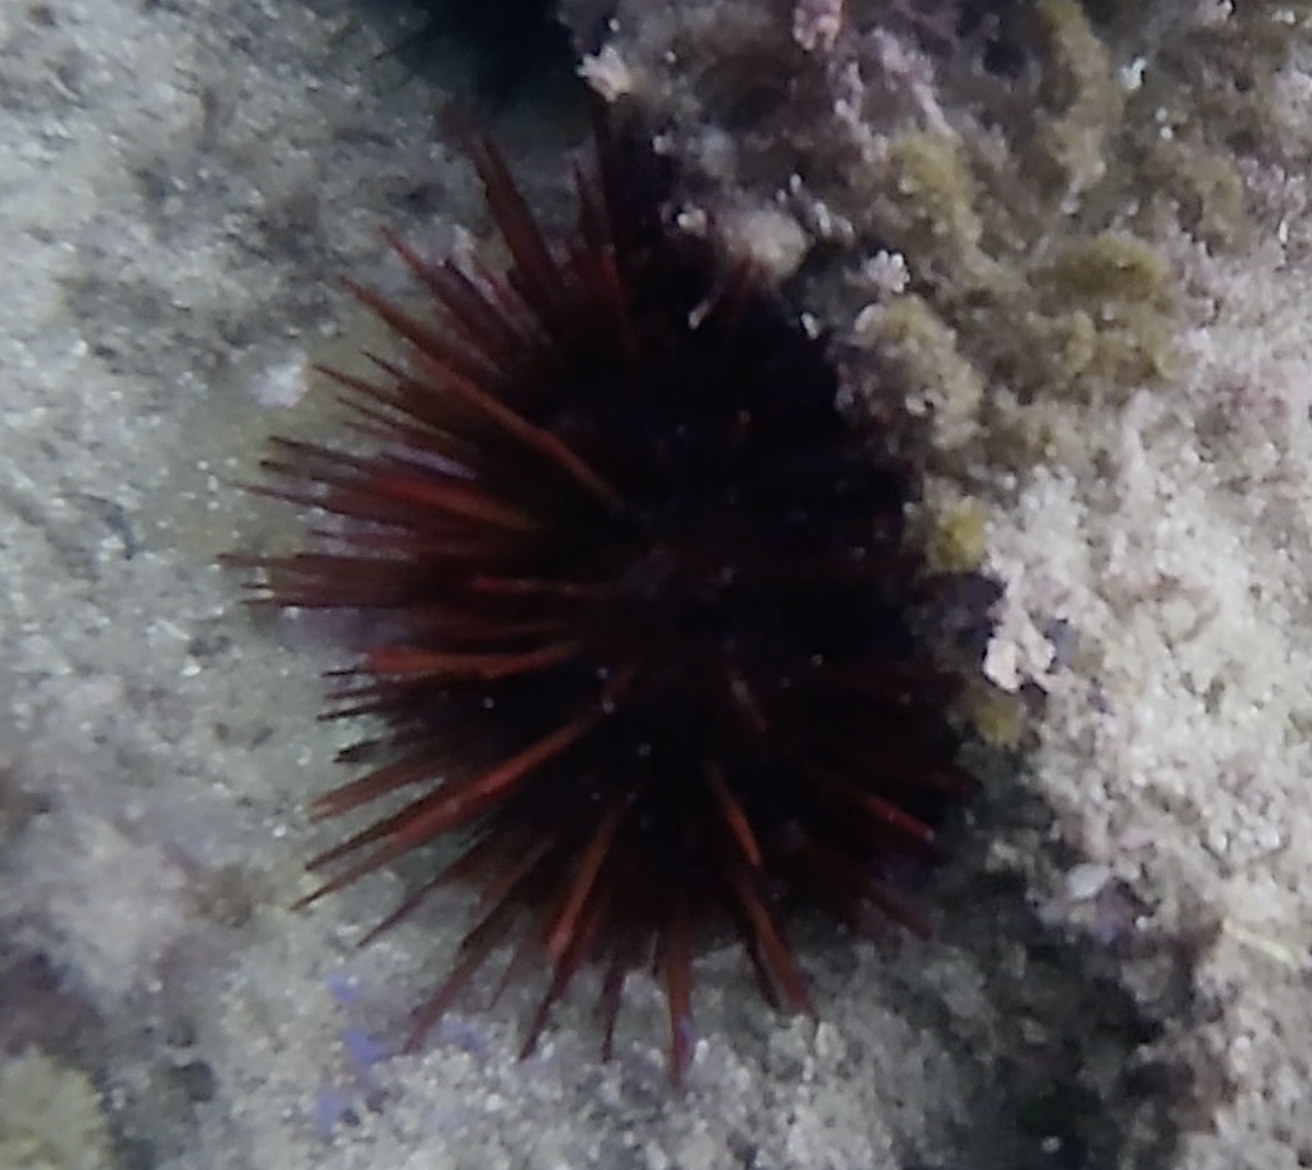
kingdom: Animalia
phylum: Echinodermata
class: Echinoidea
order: Camarodonta
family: Echinometridae
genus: Heliocidaris
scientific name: Heliocidaris tuberculata
